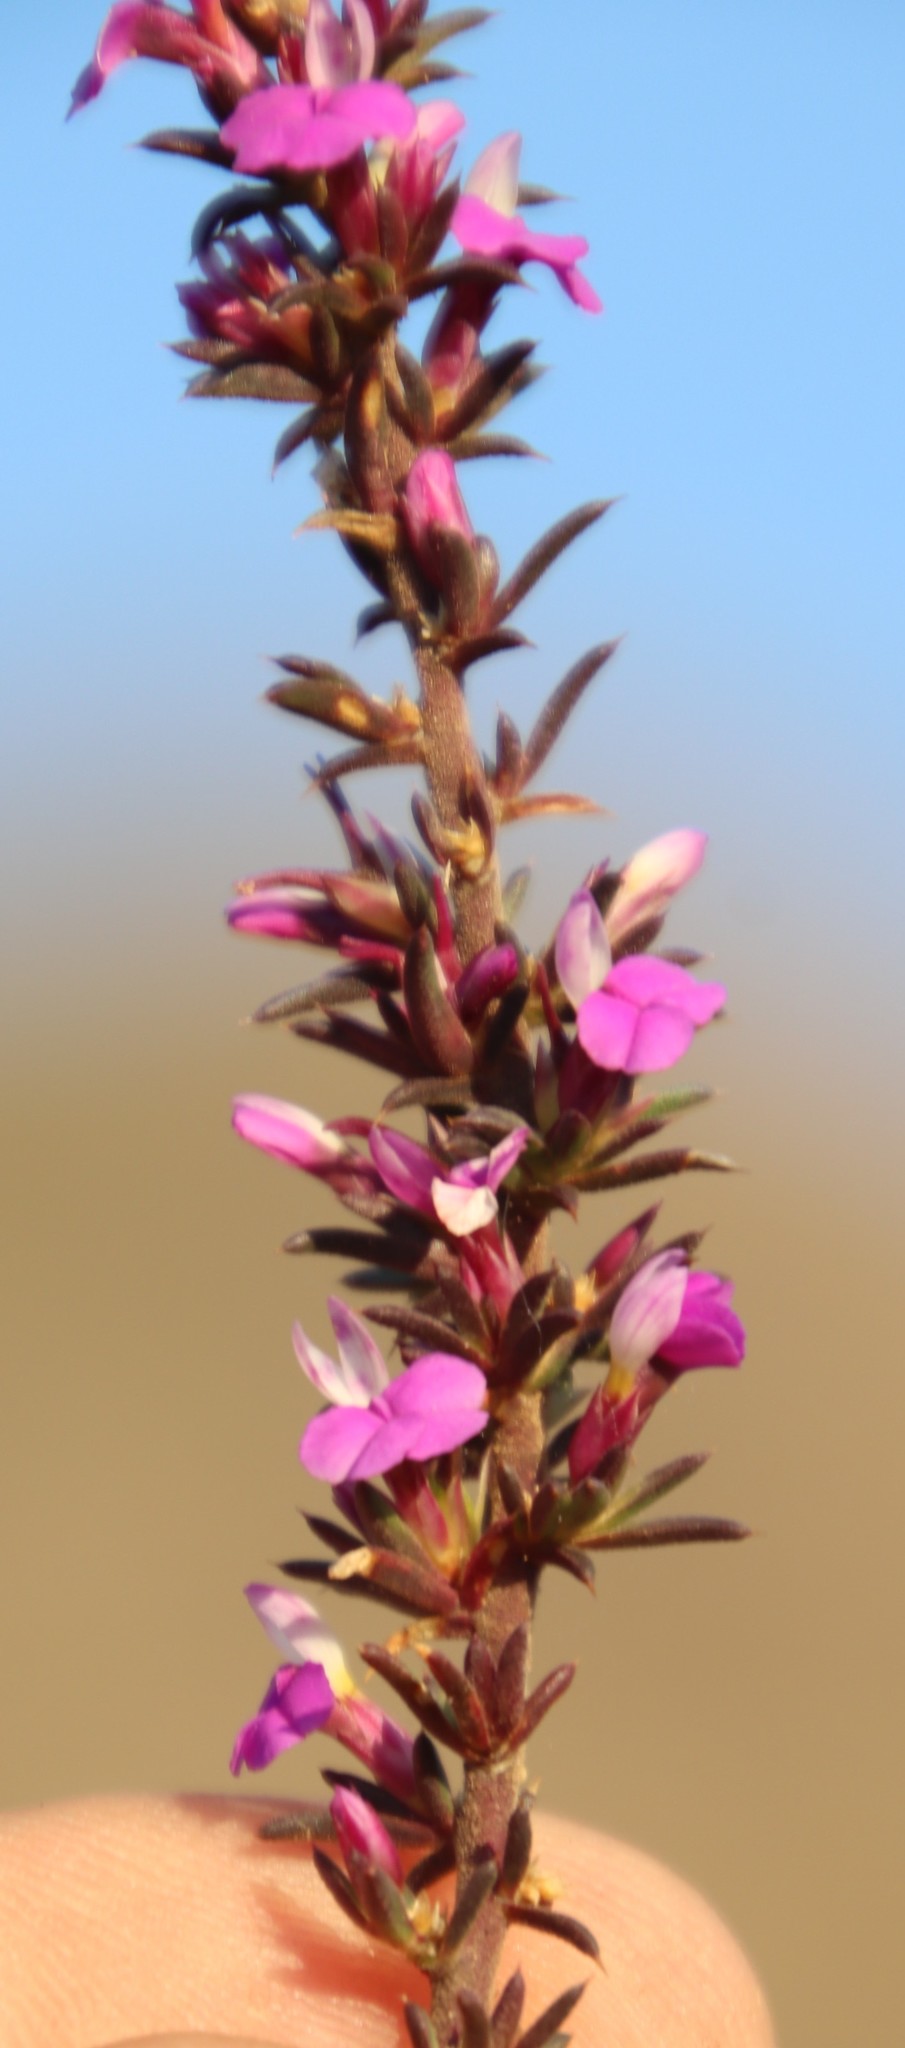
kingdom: Plantae
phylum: Tracheophyta
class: Magnoliopsida
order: Fabales
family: Polygalaceae
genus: Muraltia
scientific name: Muraltia heisteria
